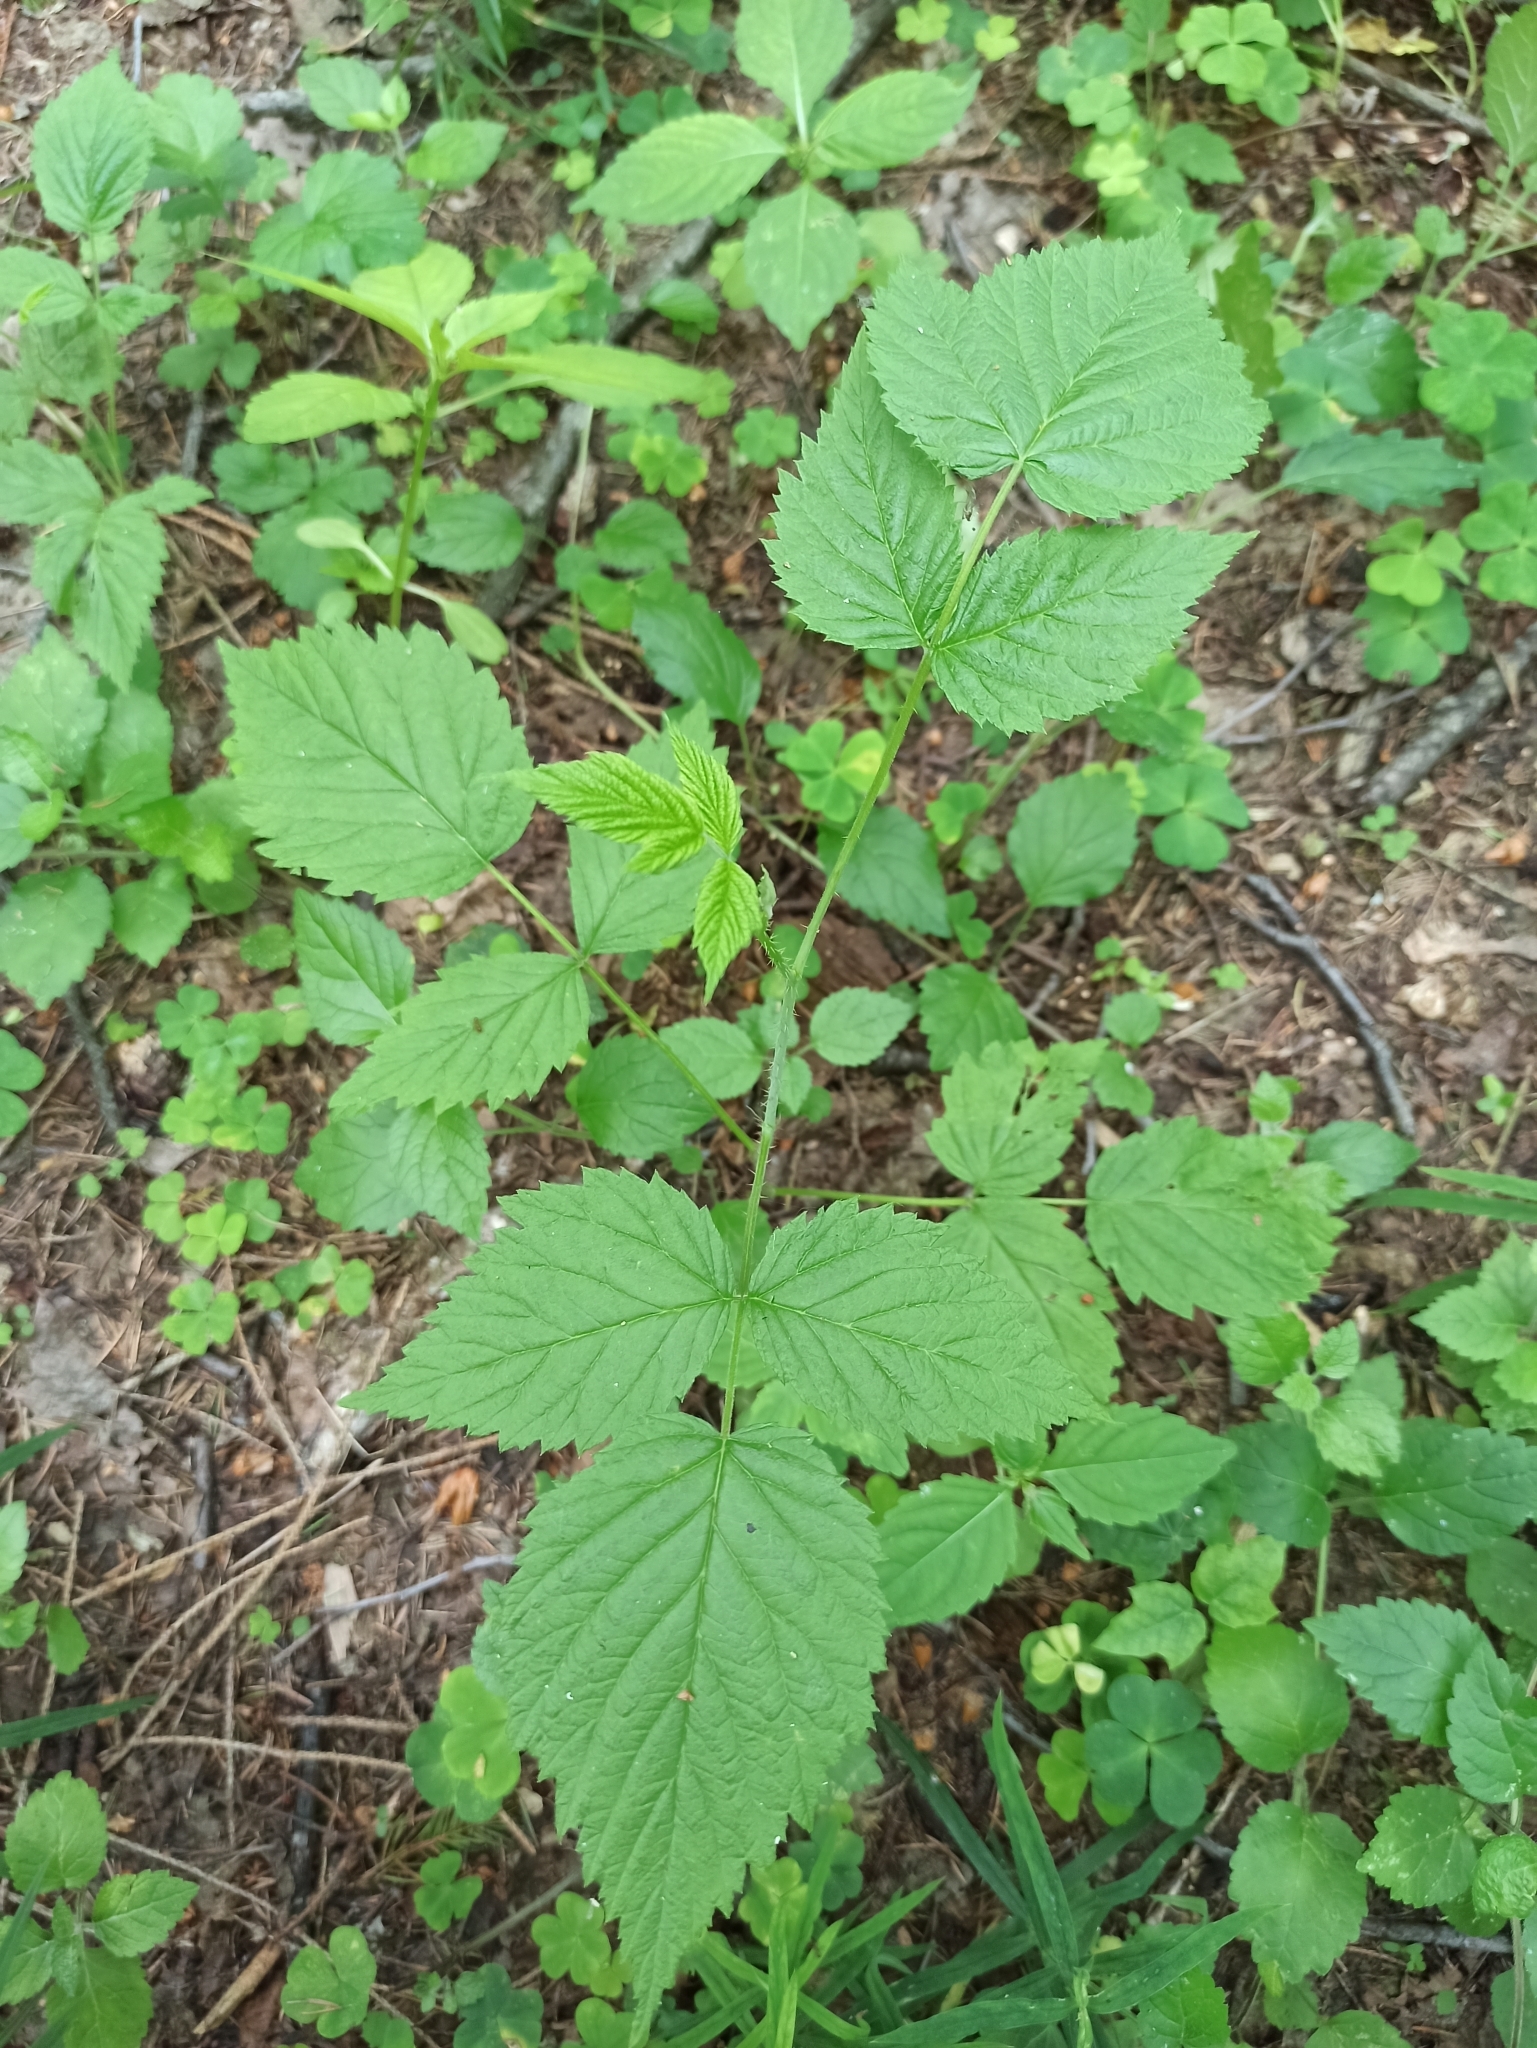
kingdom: Plantae
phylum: Tracheophyta
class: Magnoliopsida
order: Rosales
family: Rosaceae
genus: Rubus
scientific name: Rubus idaeus
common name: Raspberry
